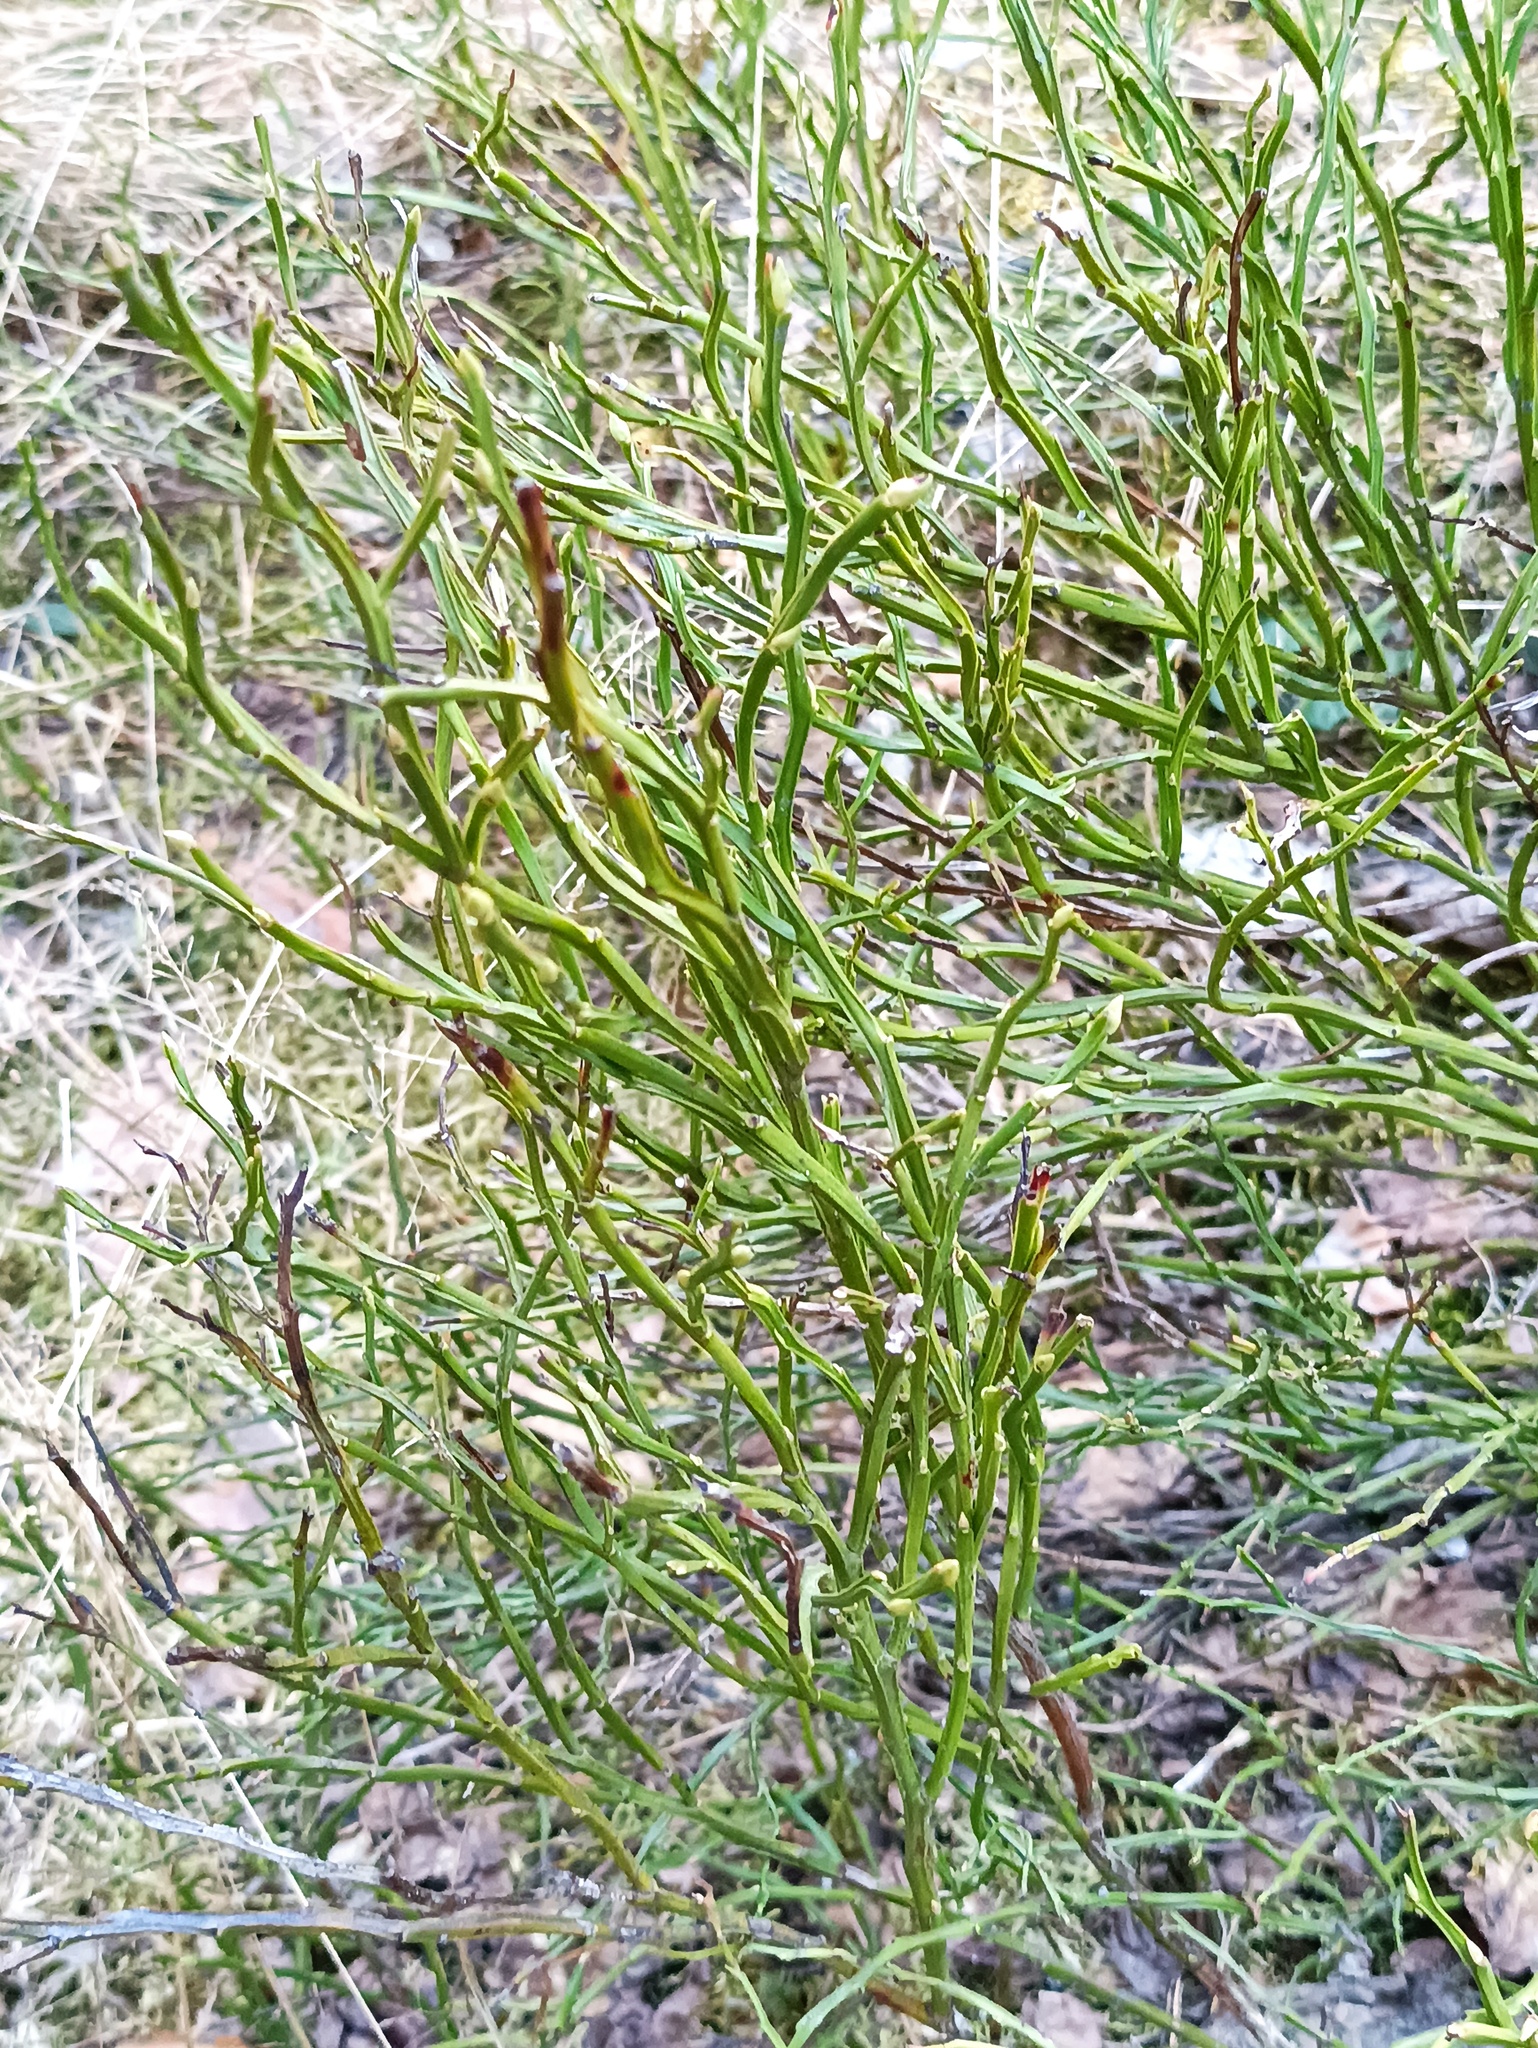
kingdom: Plantae
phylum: Tracheophyta
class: Magnoliopsida
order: Ericales
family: Ericaceae
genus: Vaccinium
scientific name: Vaccinium myrtillus
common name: Bilberry
